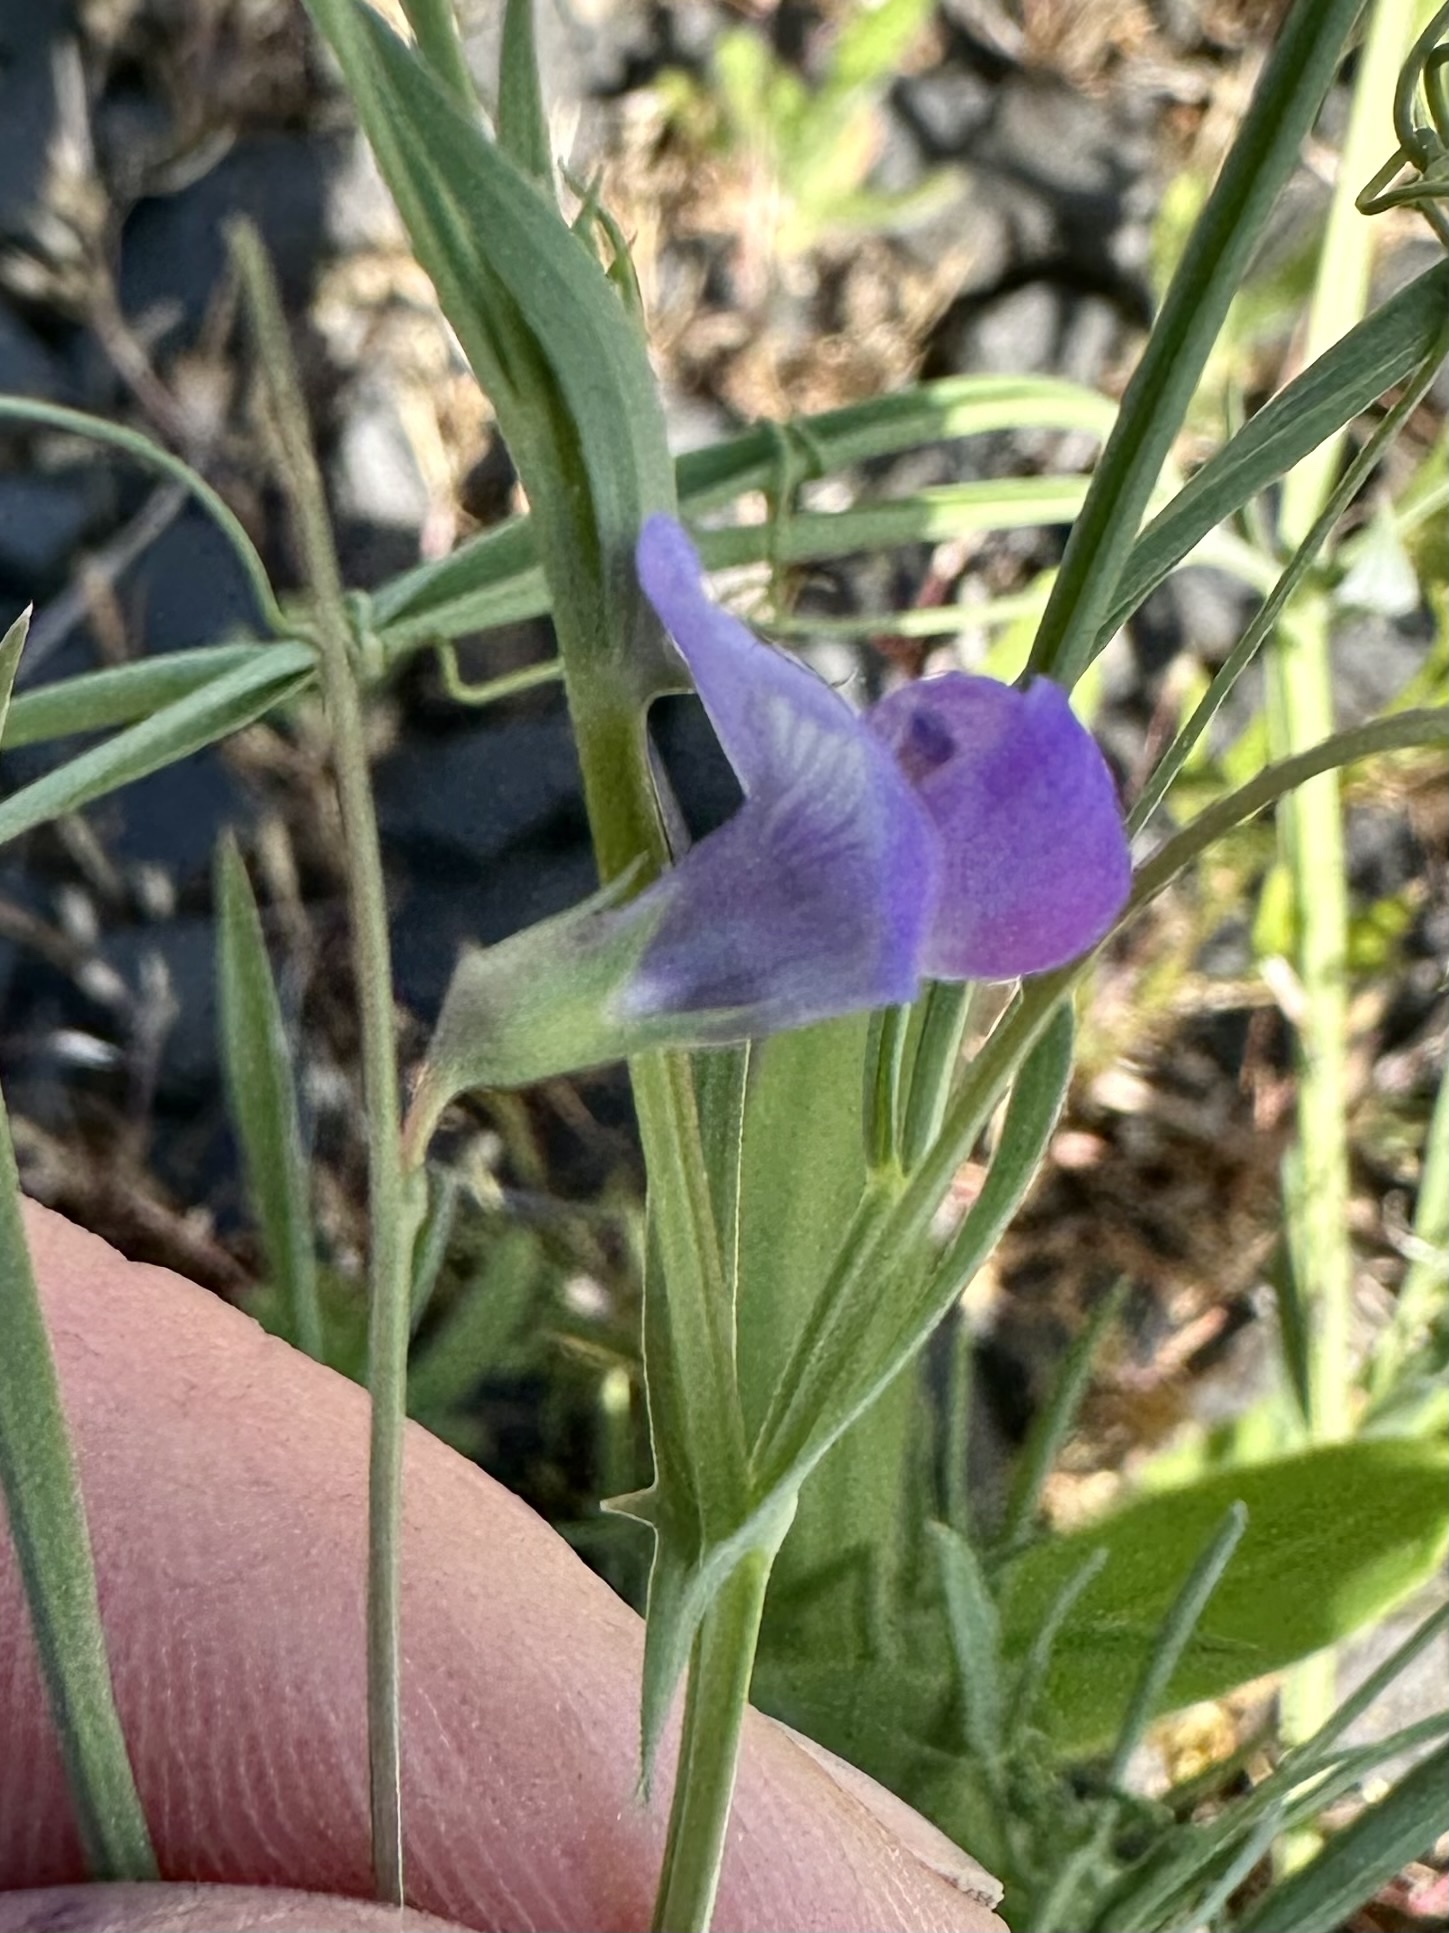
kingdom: Plantae
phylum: Tracheophyta
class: Magnoliopsida
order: Fabales
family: Fabaceae
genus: Lathyrus
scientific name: Lathyrus angulatus
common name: Angular pea
